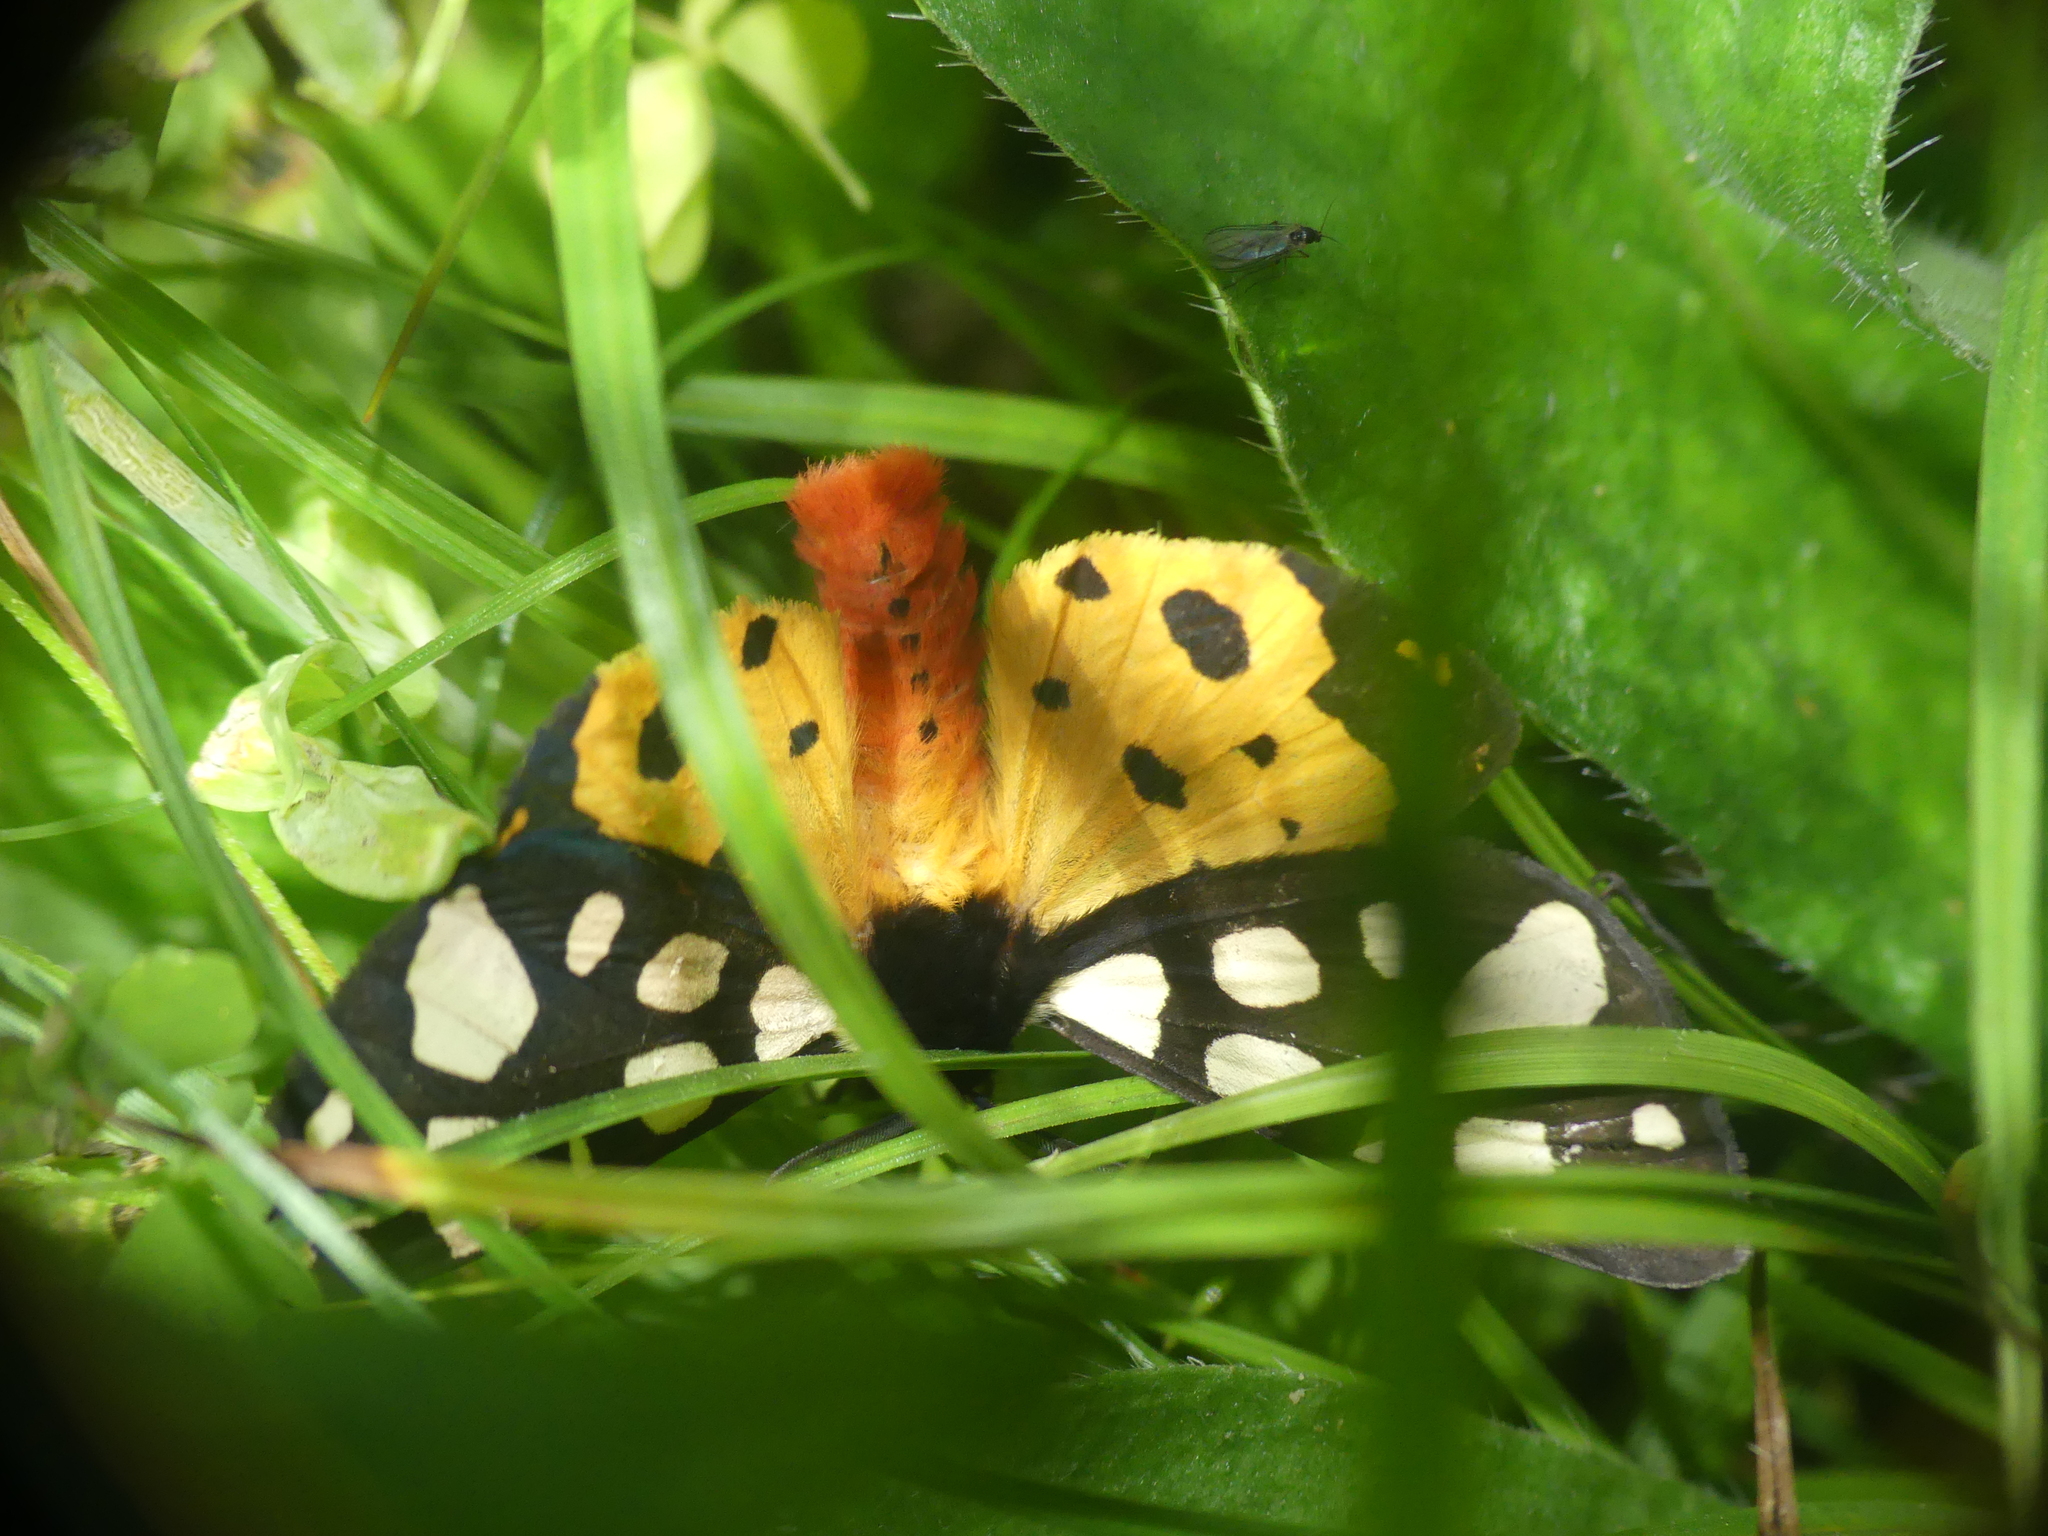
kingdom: Animalia
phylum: Arthropoda
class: Insecta
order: Lepidoptera
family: Erebidae
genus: Epicallia
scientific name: Epicallia villica
